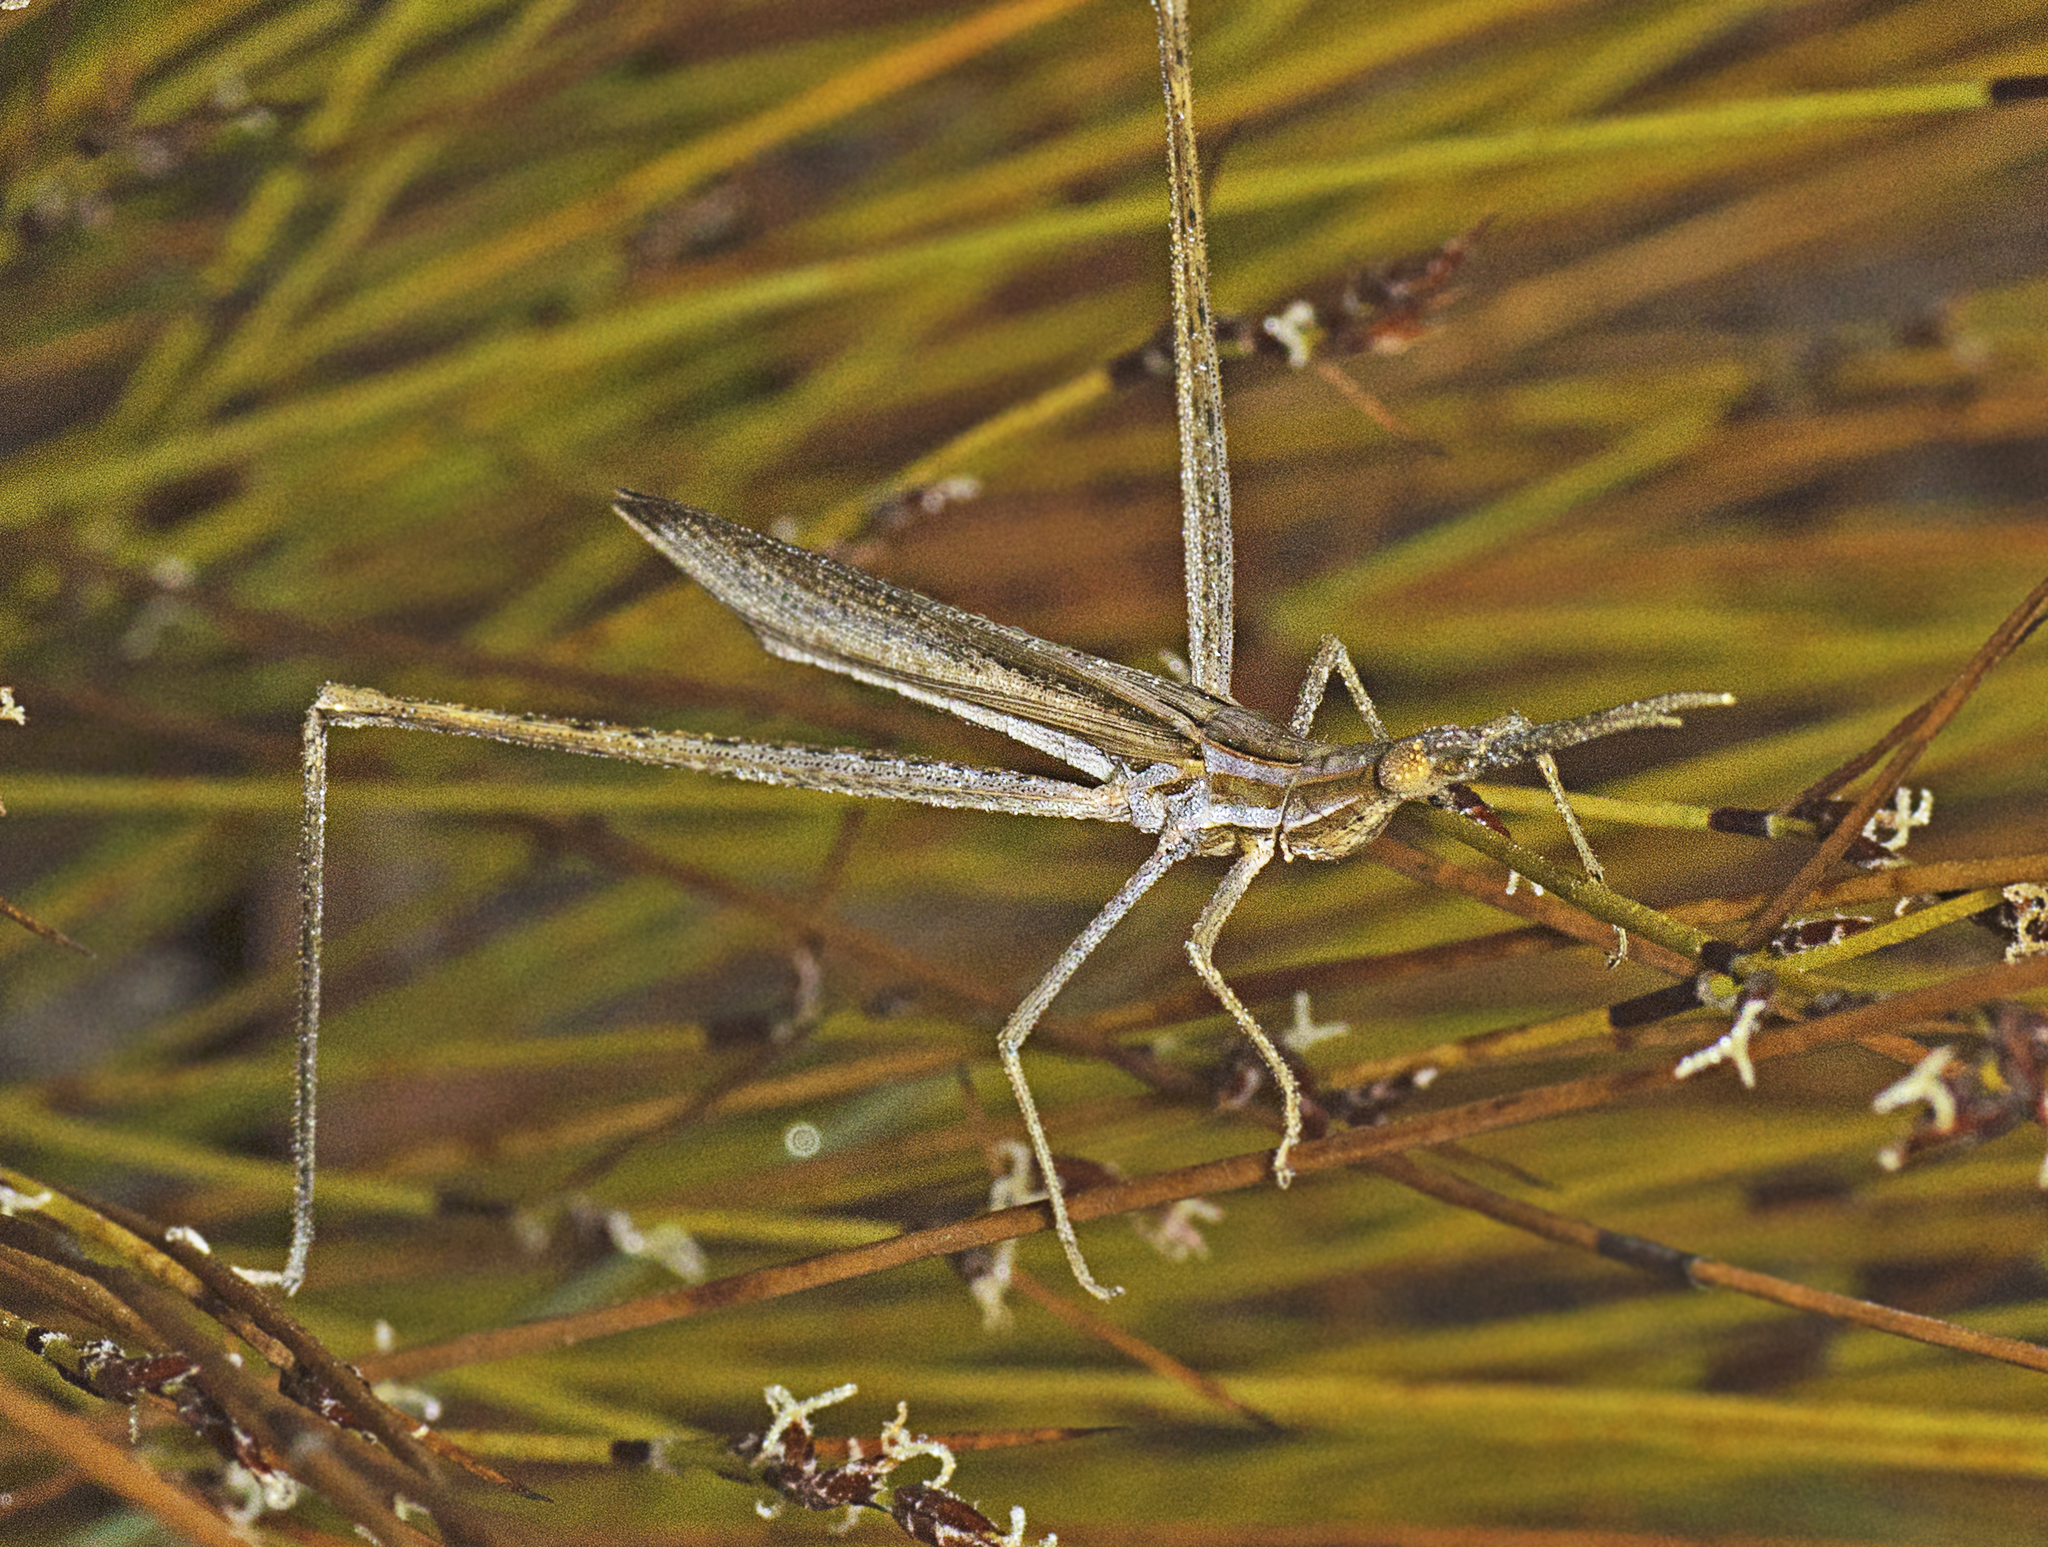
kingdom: Animalia
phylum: Arthropoda
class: Insecta
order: Orthoptera
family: Acrididae
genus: Acrida
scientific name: Acrida conica
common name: Giant green slantface
